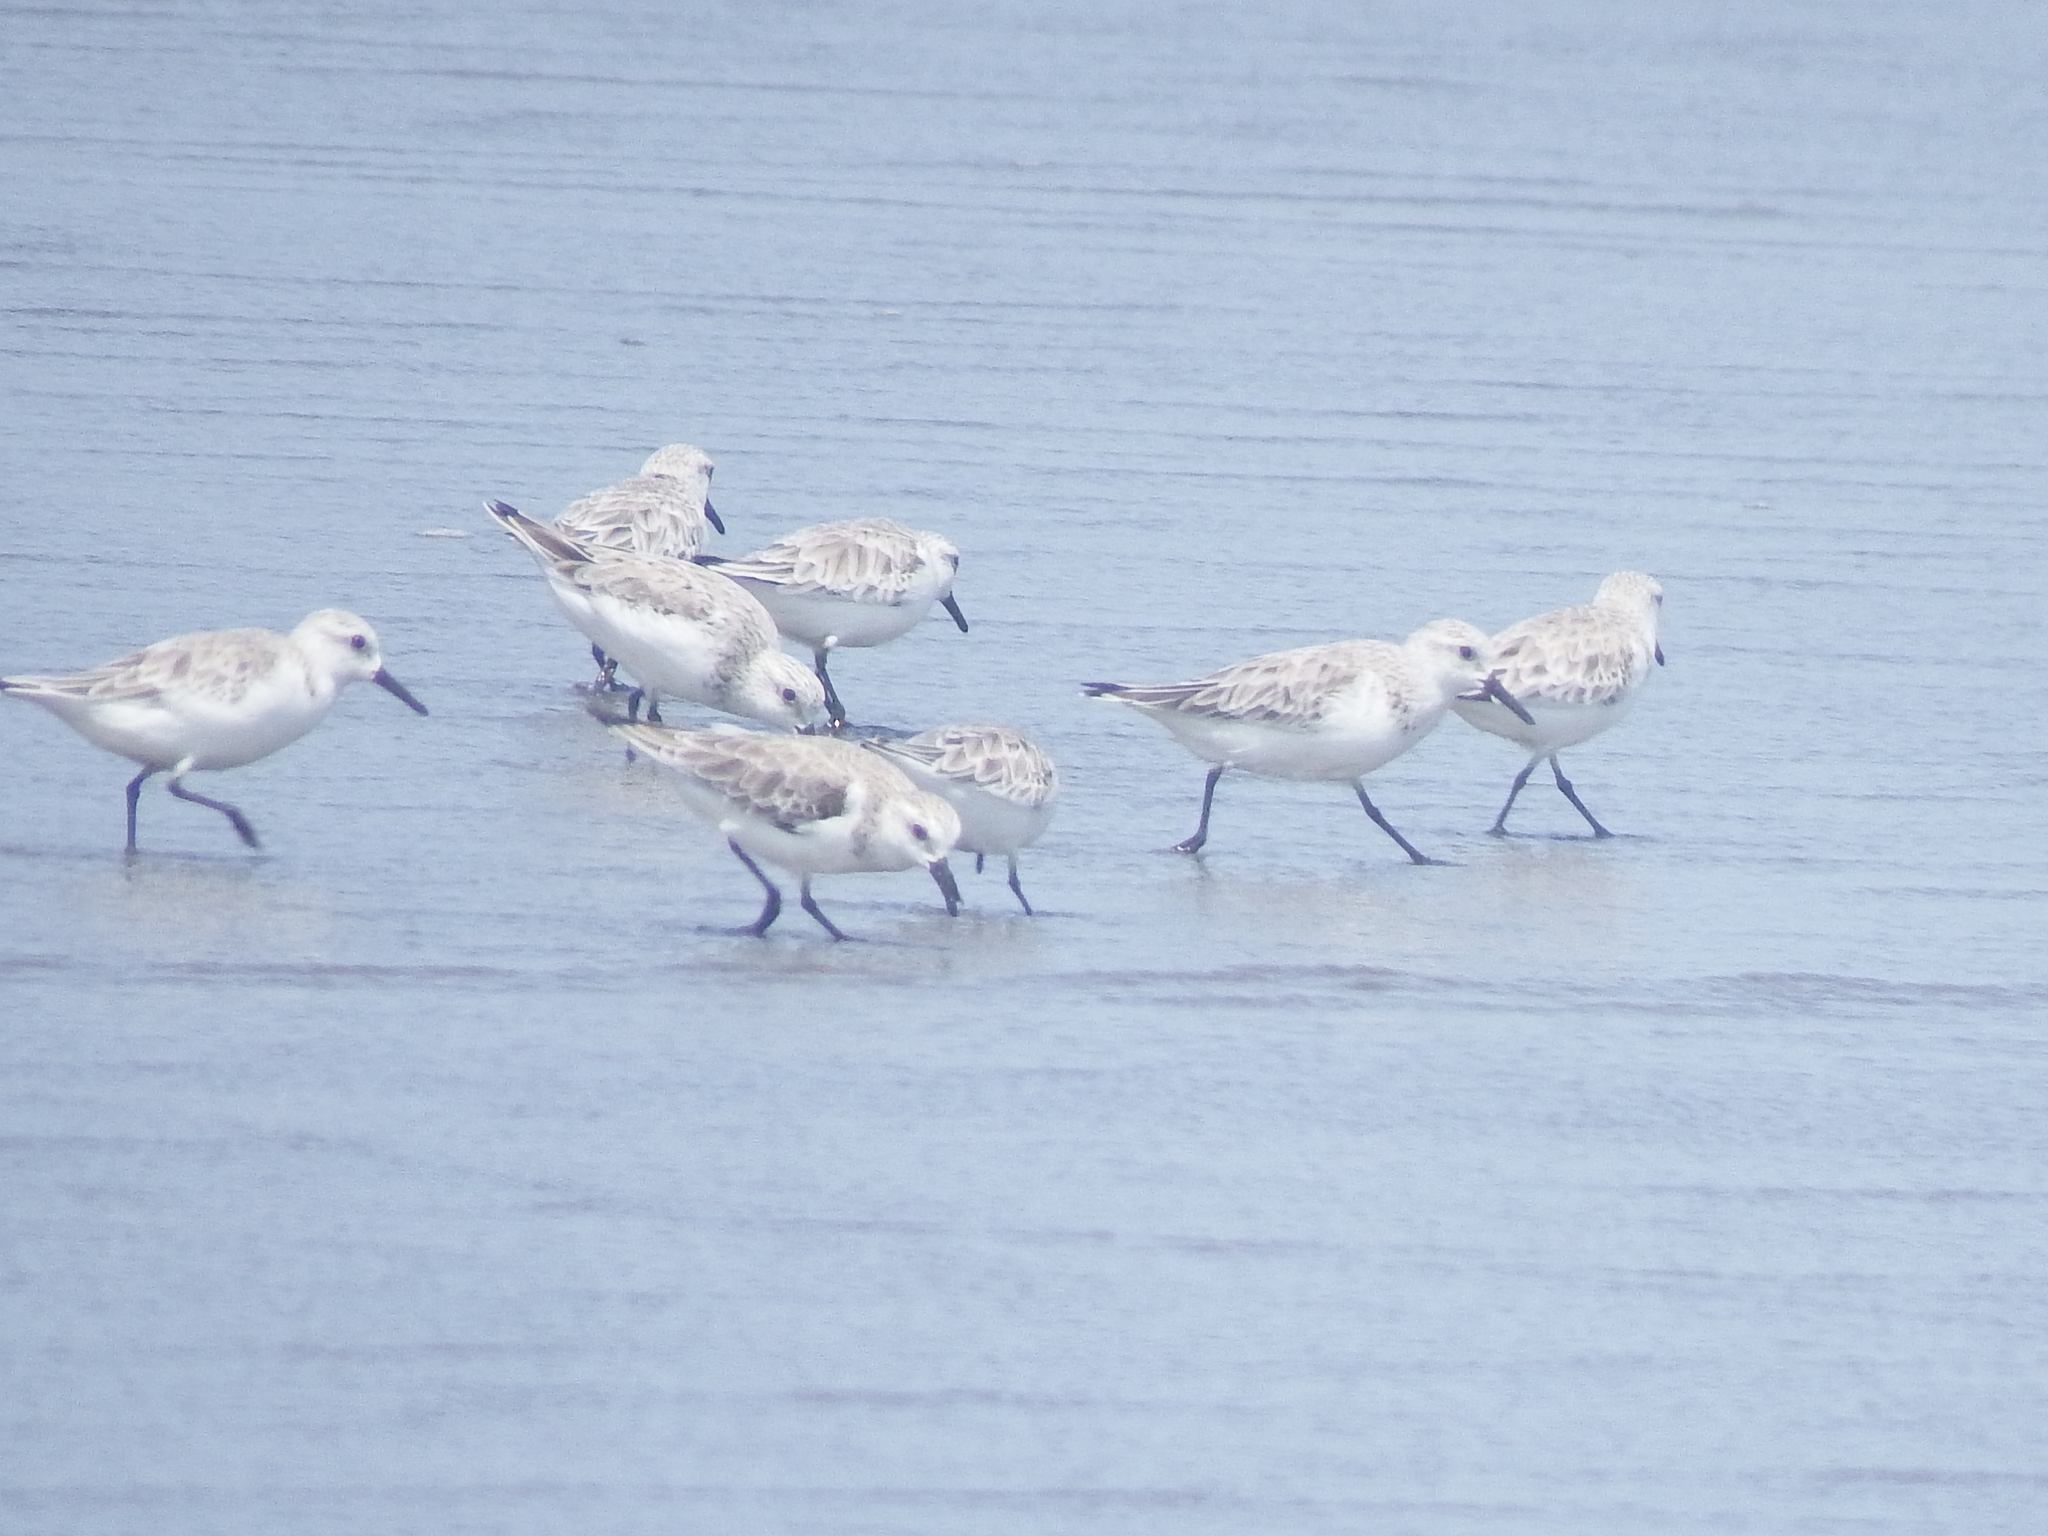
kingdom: Animalia
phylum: Chordata
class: Aves
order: Charadriiformes
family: Scolopacidae
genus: Calidris
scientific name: Calidris alba
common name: Sanderling
